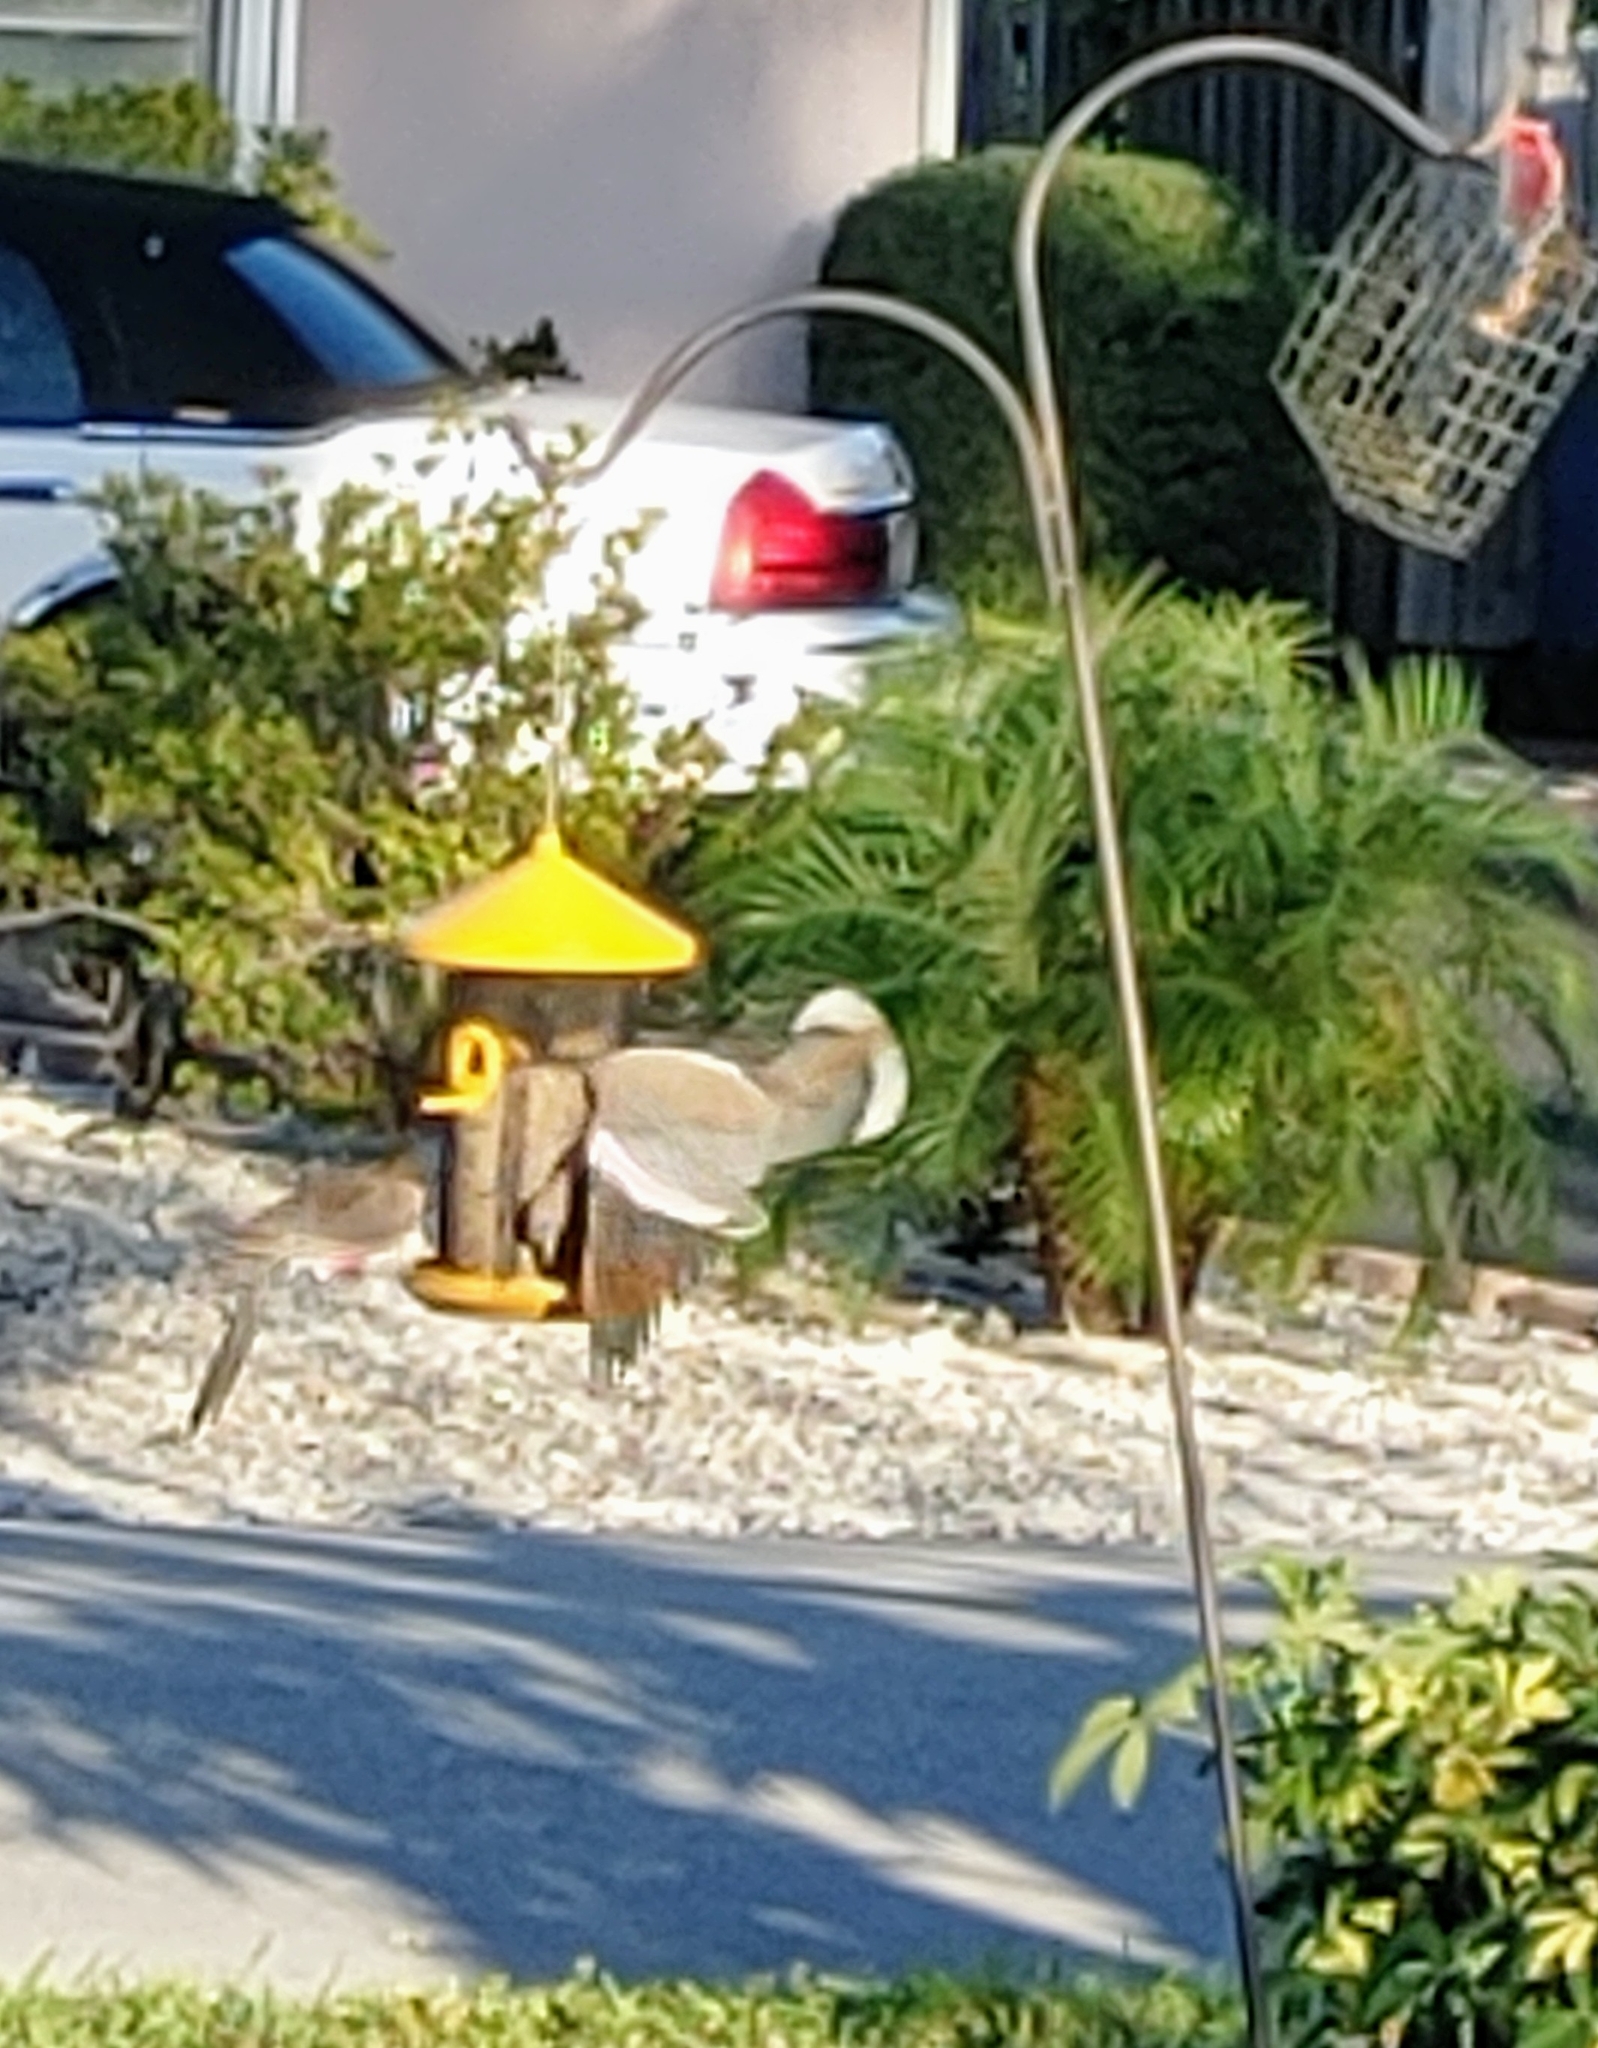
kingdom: Animalia
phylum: Chordata
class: Aves
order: Columbiformes
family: Columbidae
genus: Zenaida
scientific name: Zenaida asiatica
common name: White-winged dove
